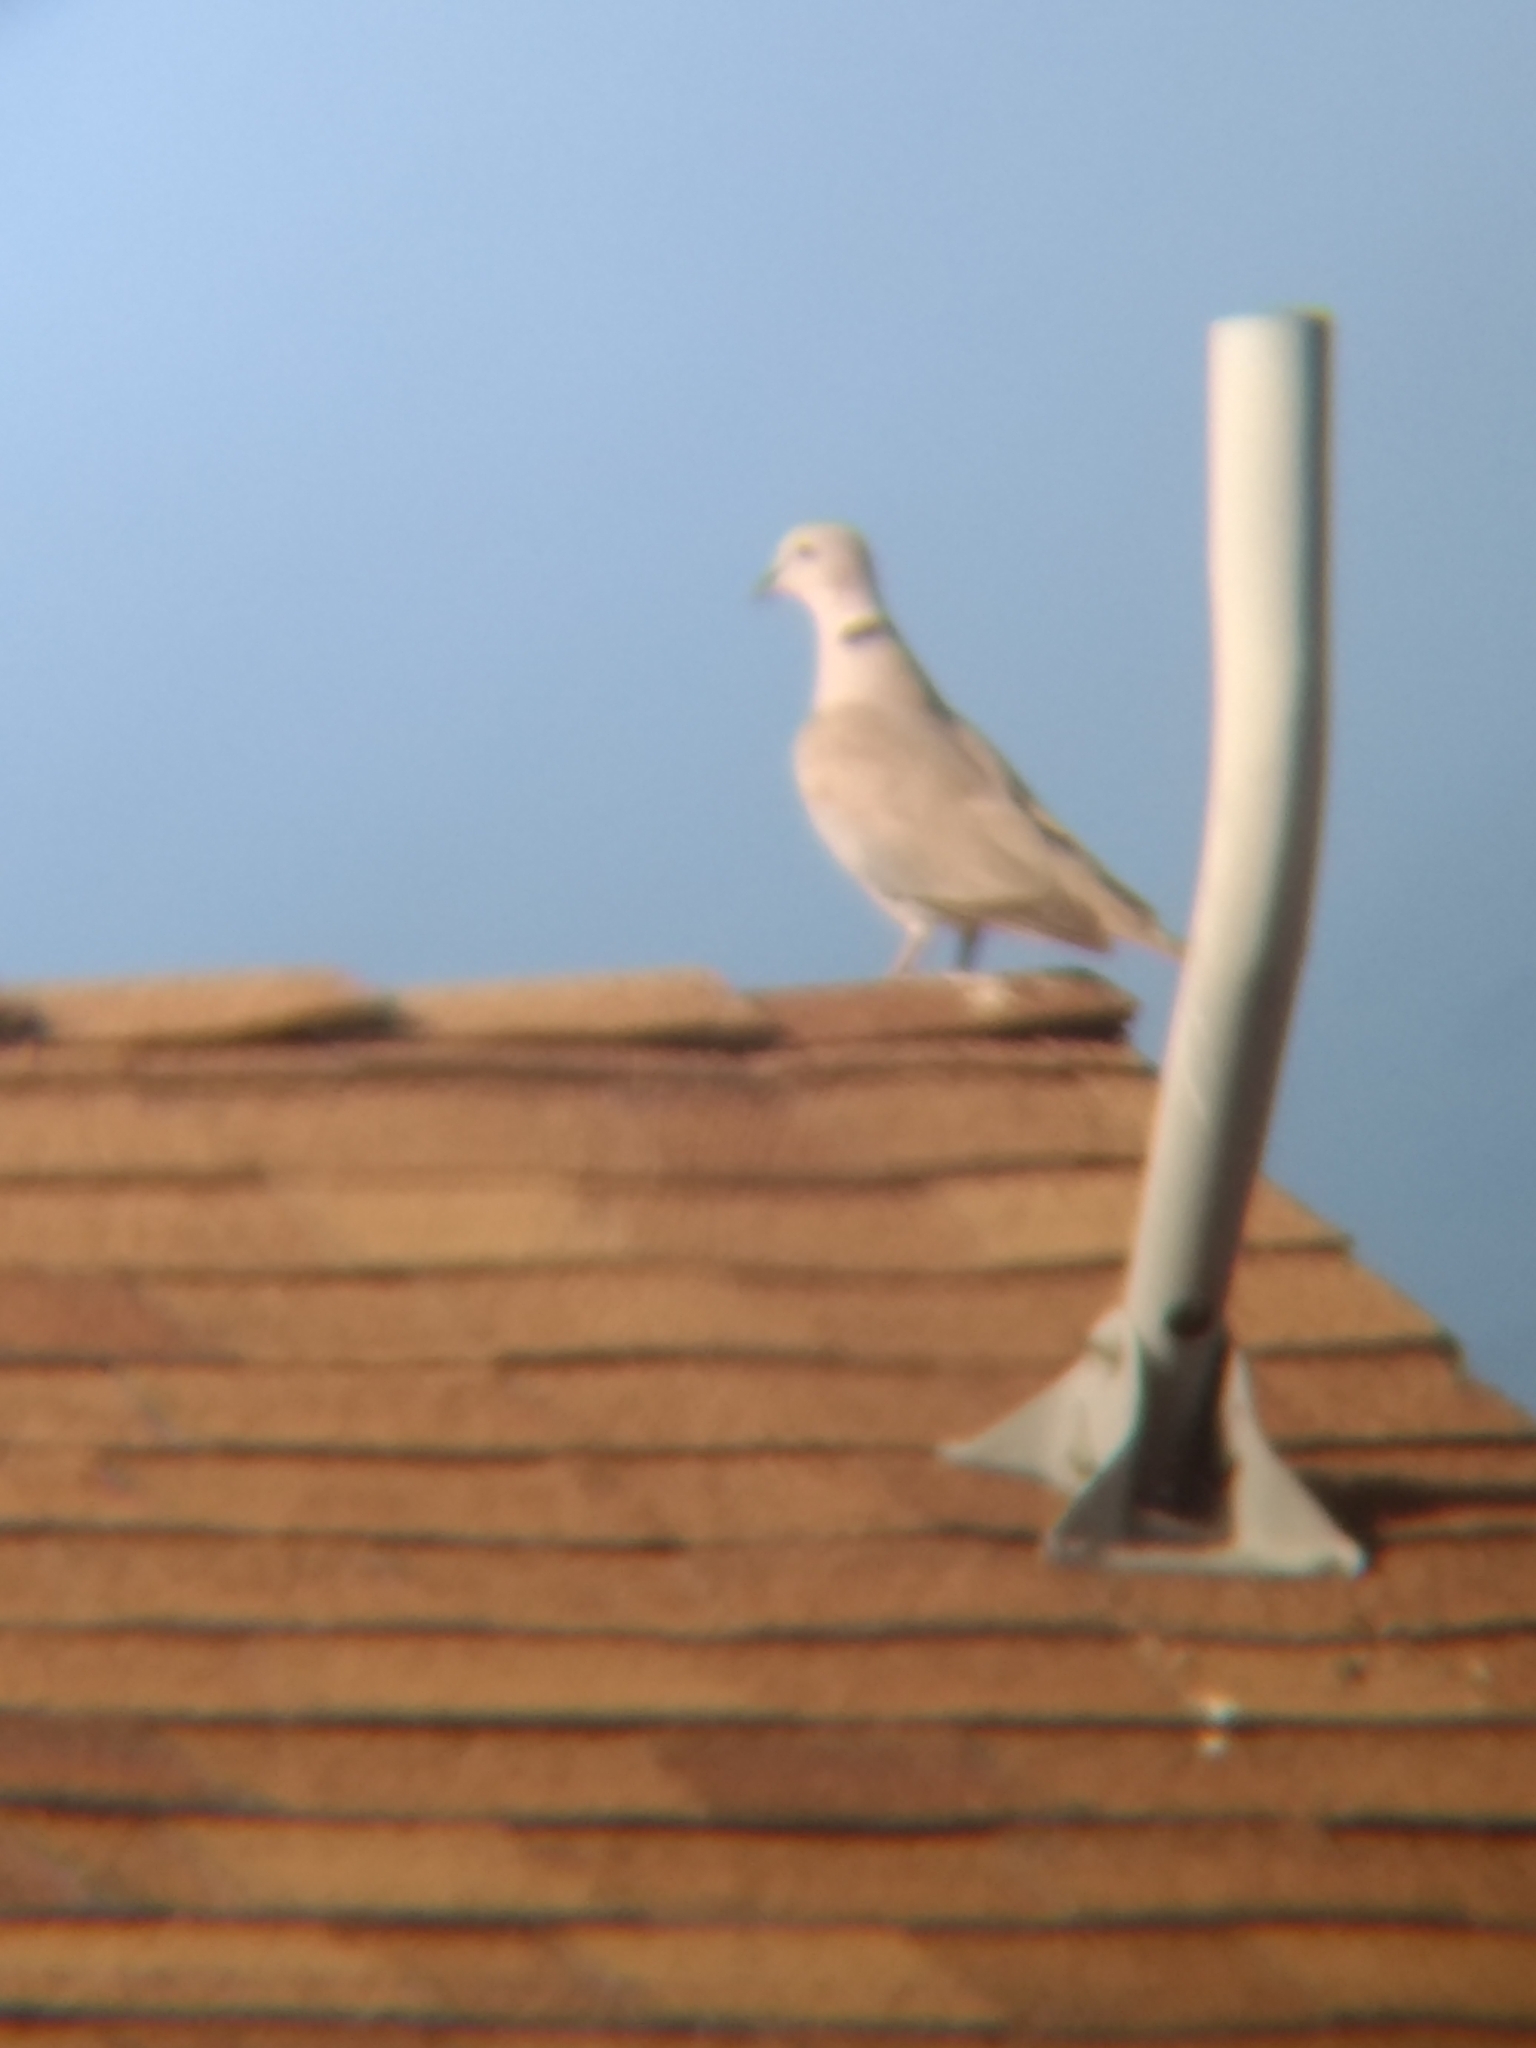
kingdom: Animalia
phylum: Chordata
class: Aves
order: Columbiformes
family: Columbidae
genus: Streptopelia
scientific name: Streptopelia decaocto
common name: Eurasian collared dove
